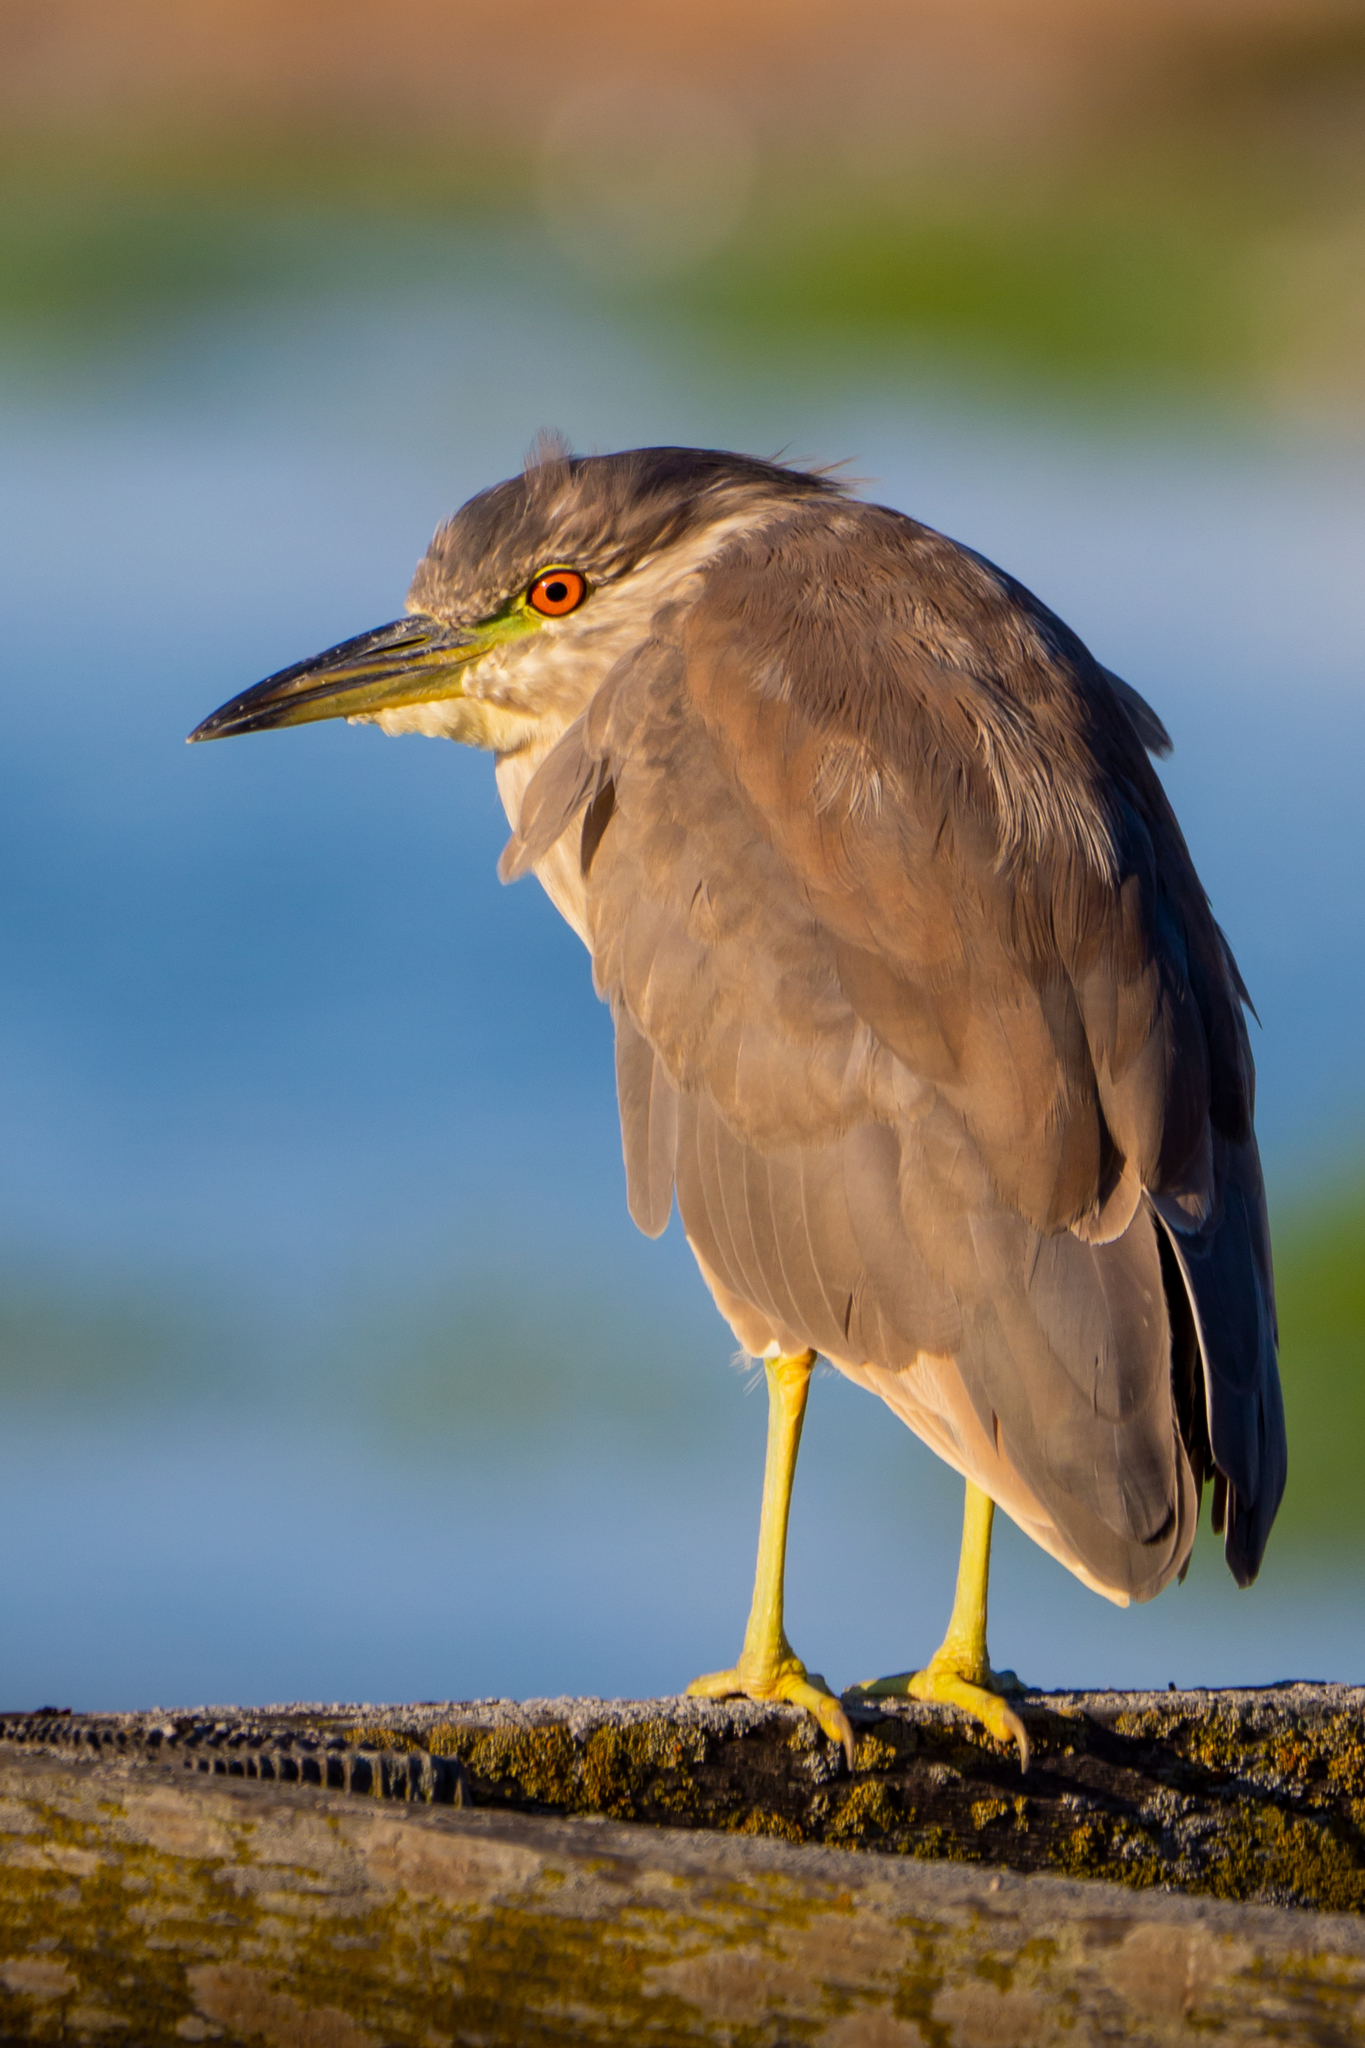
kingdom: Animalia
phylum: Chordata
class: Aves
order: Pelecaniformes
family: Ardeidae
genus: Nycticorax
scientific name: Nycticorax nycticorax
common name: Black-crowned night heron
